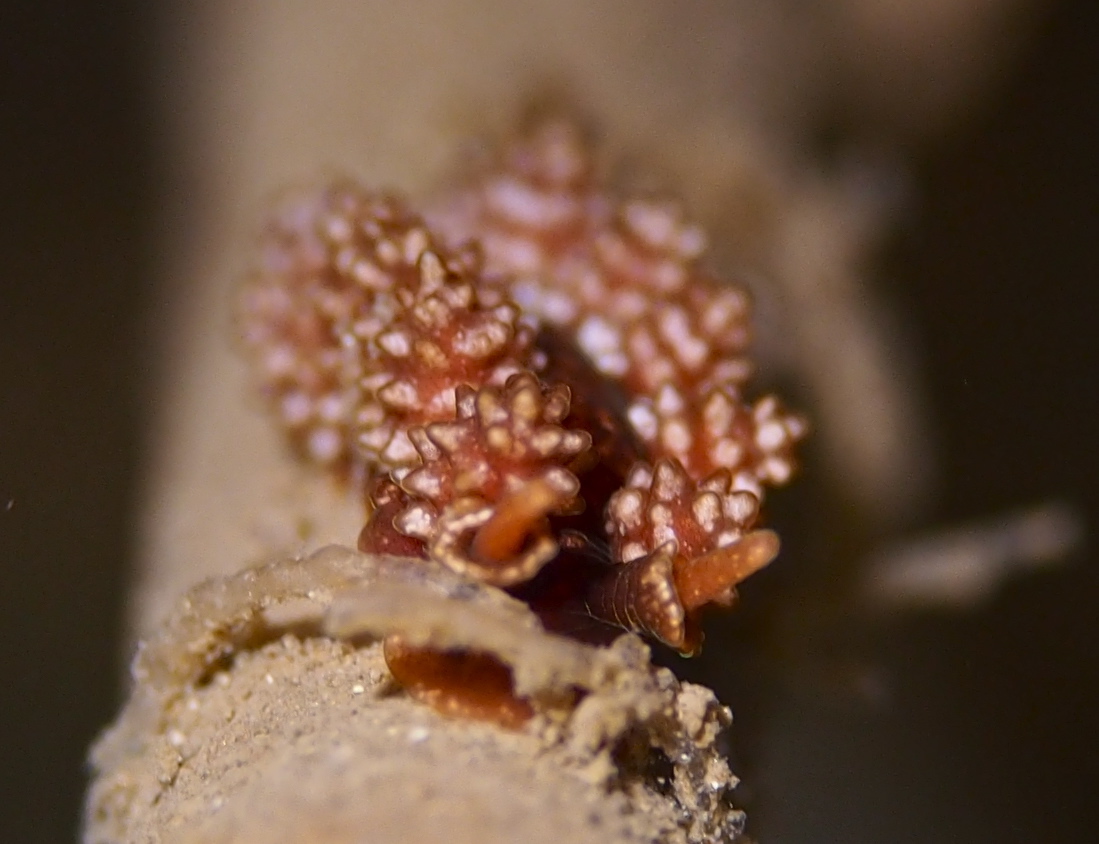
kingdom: Animalia
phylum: Mollusca
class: Gastropoda
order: Nudibranchia
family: Dotidae
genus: Doto
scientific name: Doto fragilis
